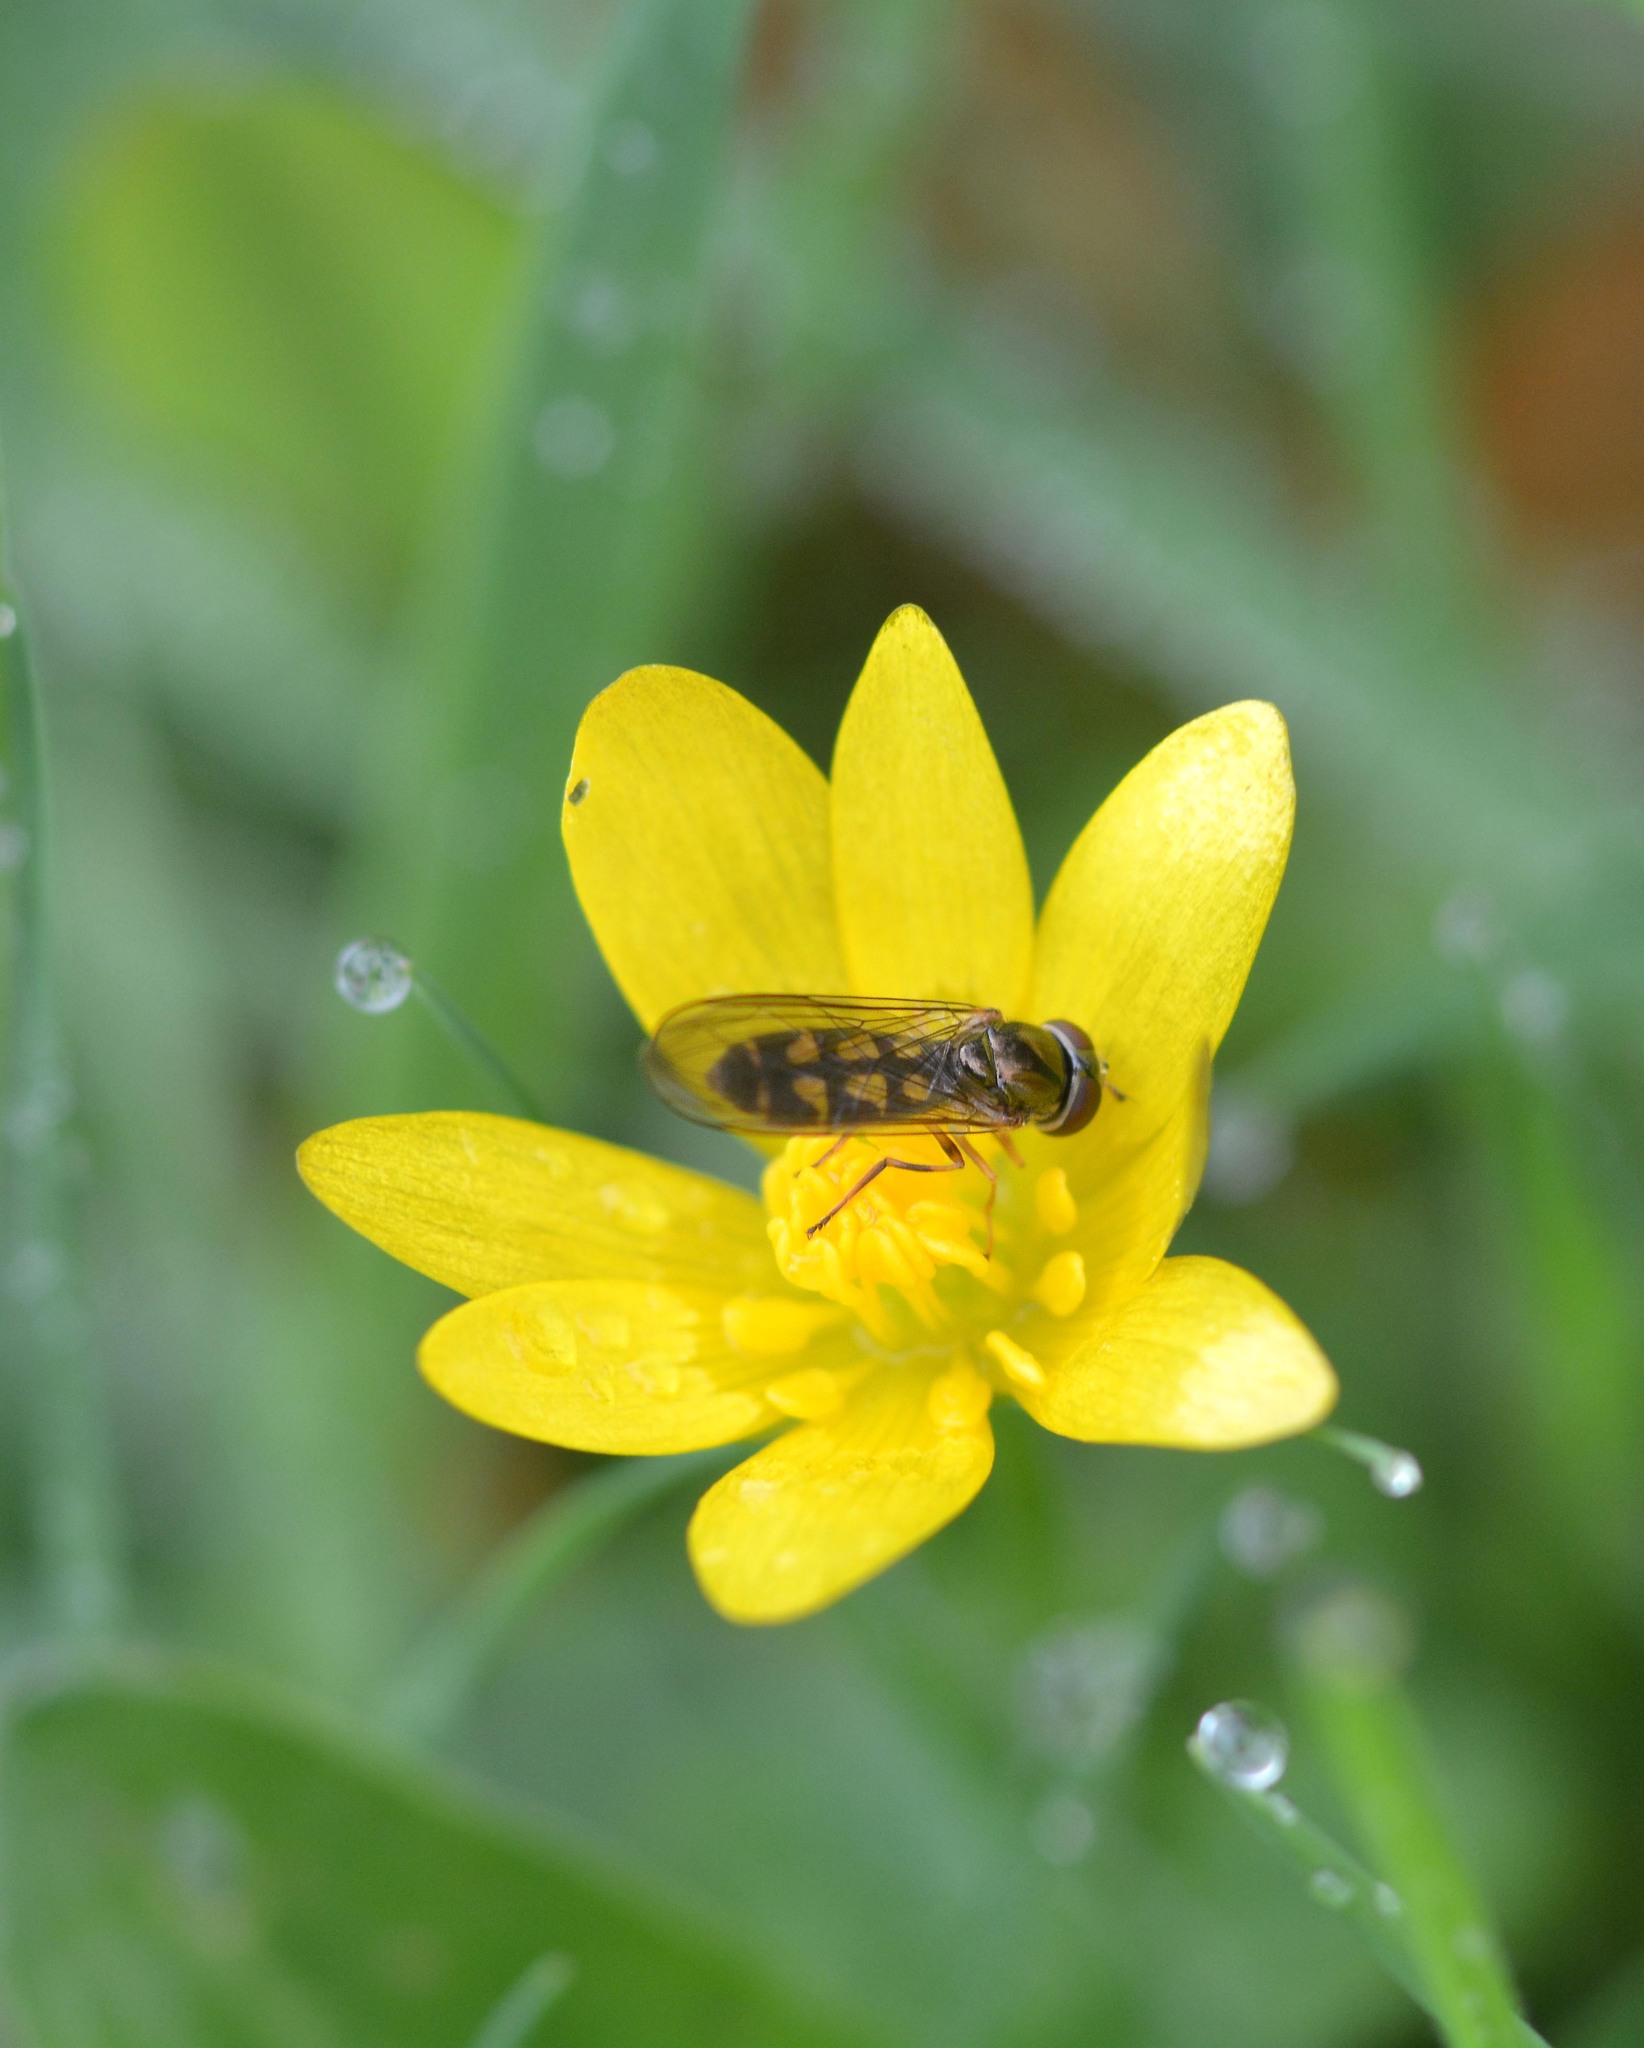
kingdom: Animalia
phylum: Arthropoda
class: Insecta
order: Diptera
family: Syrphidae
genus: Melanostoma
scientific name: Melanostoma
